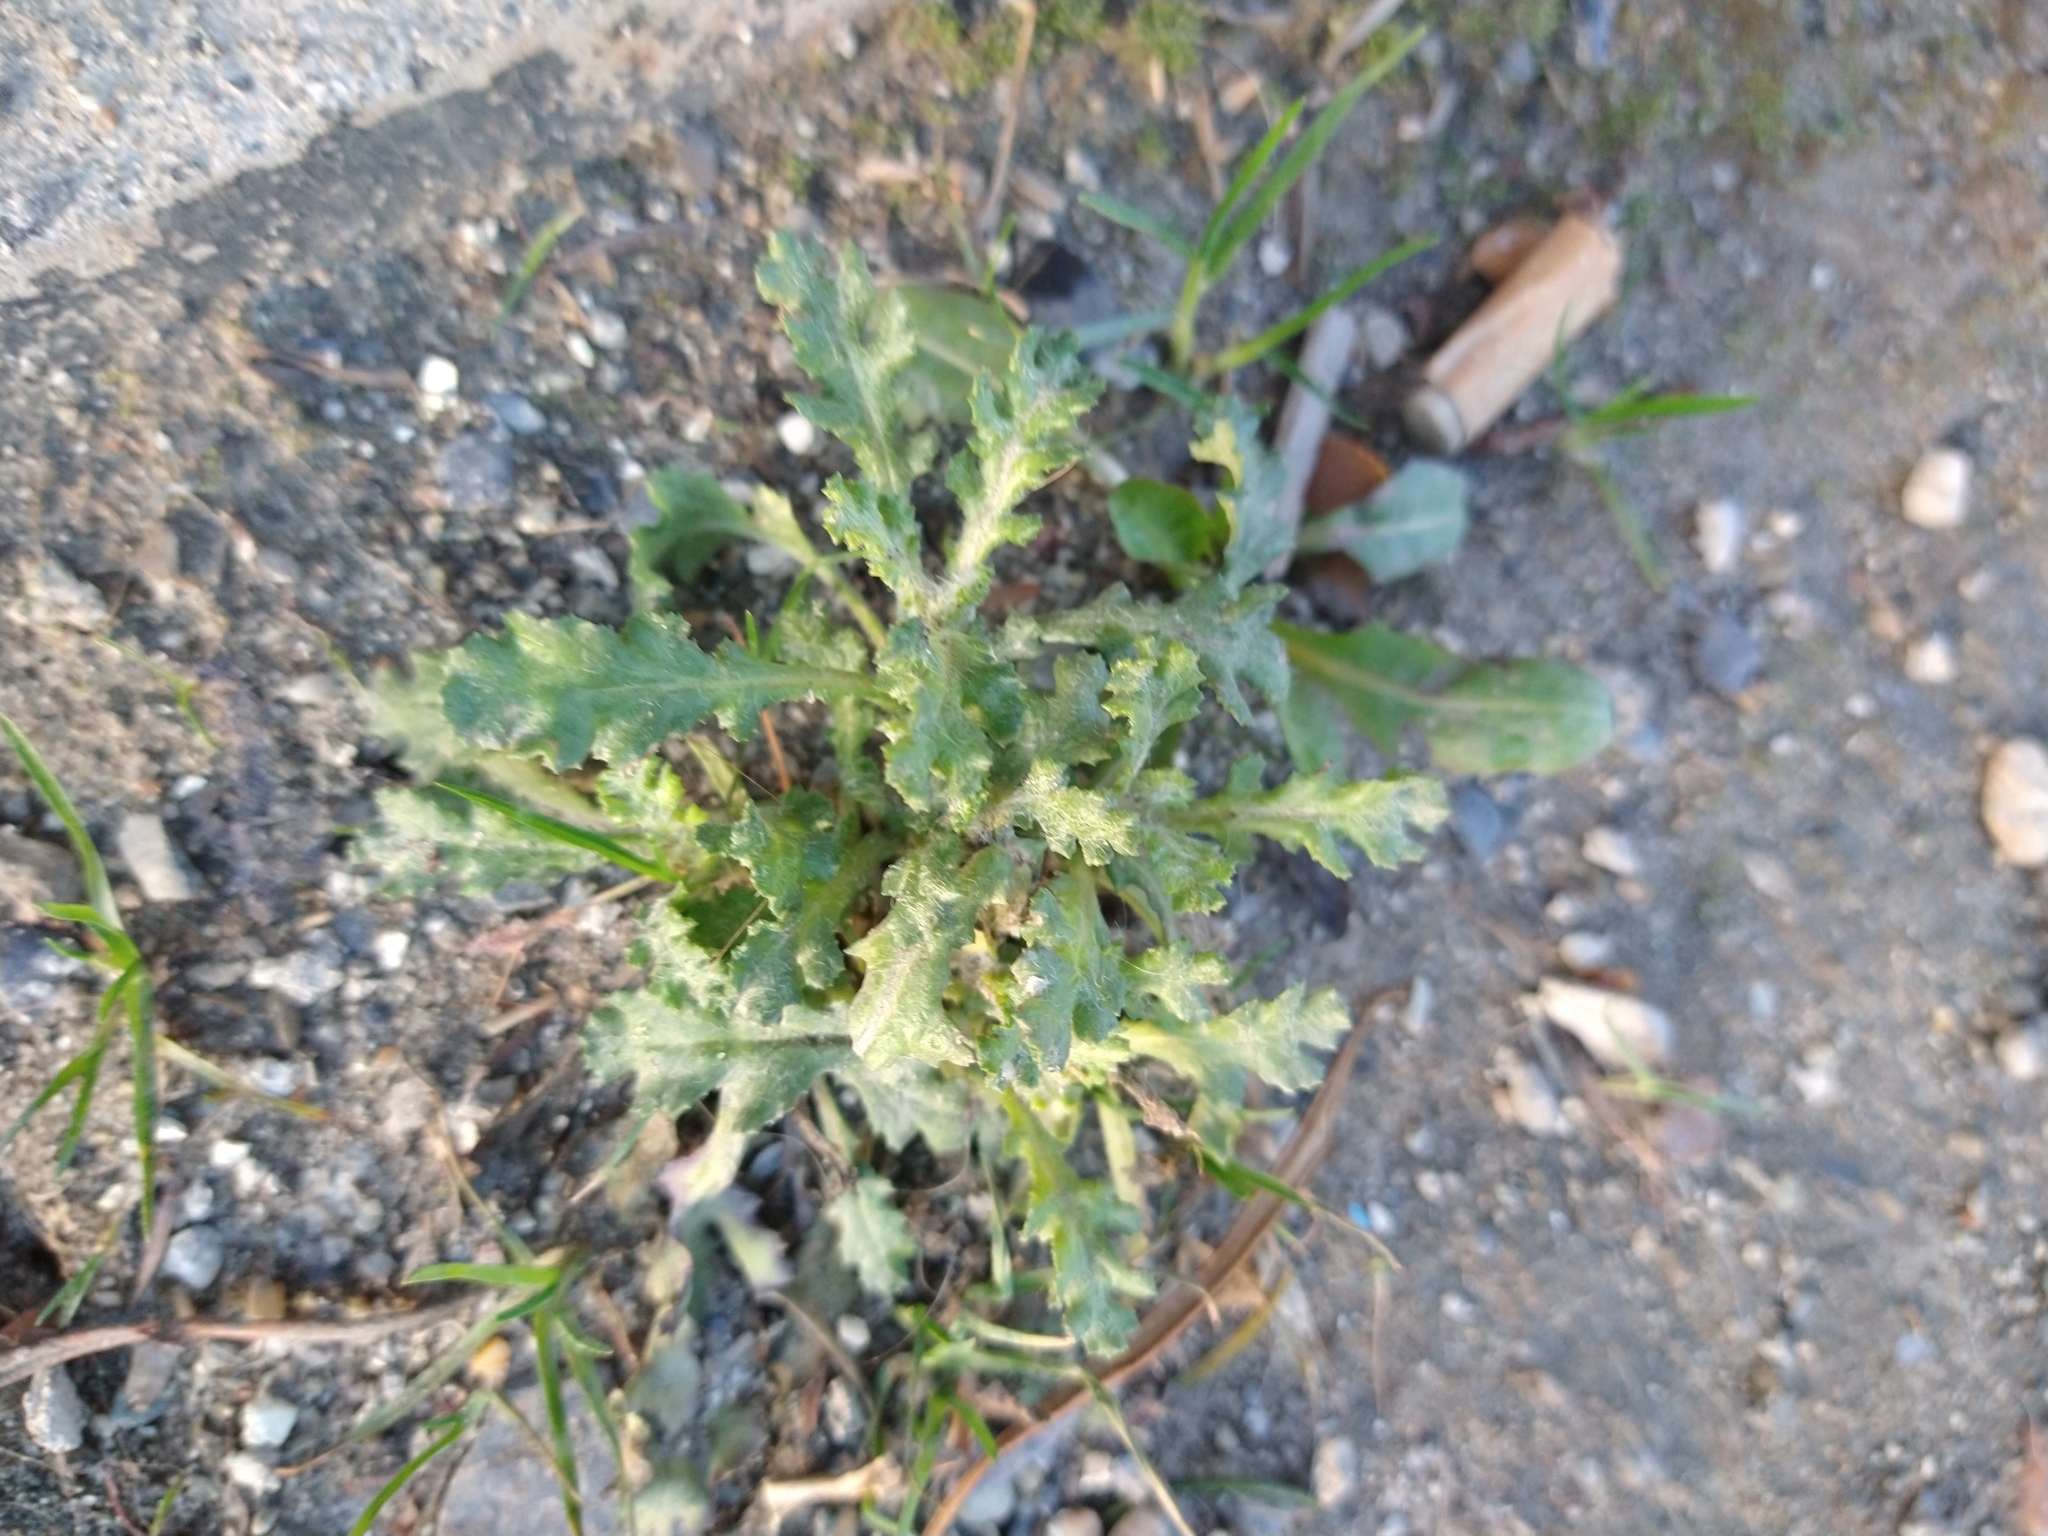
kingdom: Plantae
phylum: Tracheophyta
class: Magnoliopsida
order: Asterales
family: Asteraceae
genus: Senecio
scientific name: Senecio vulgaris
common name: Old-man-in-the-spring
